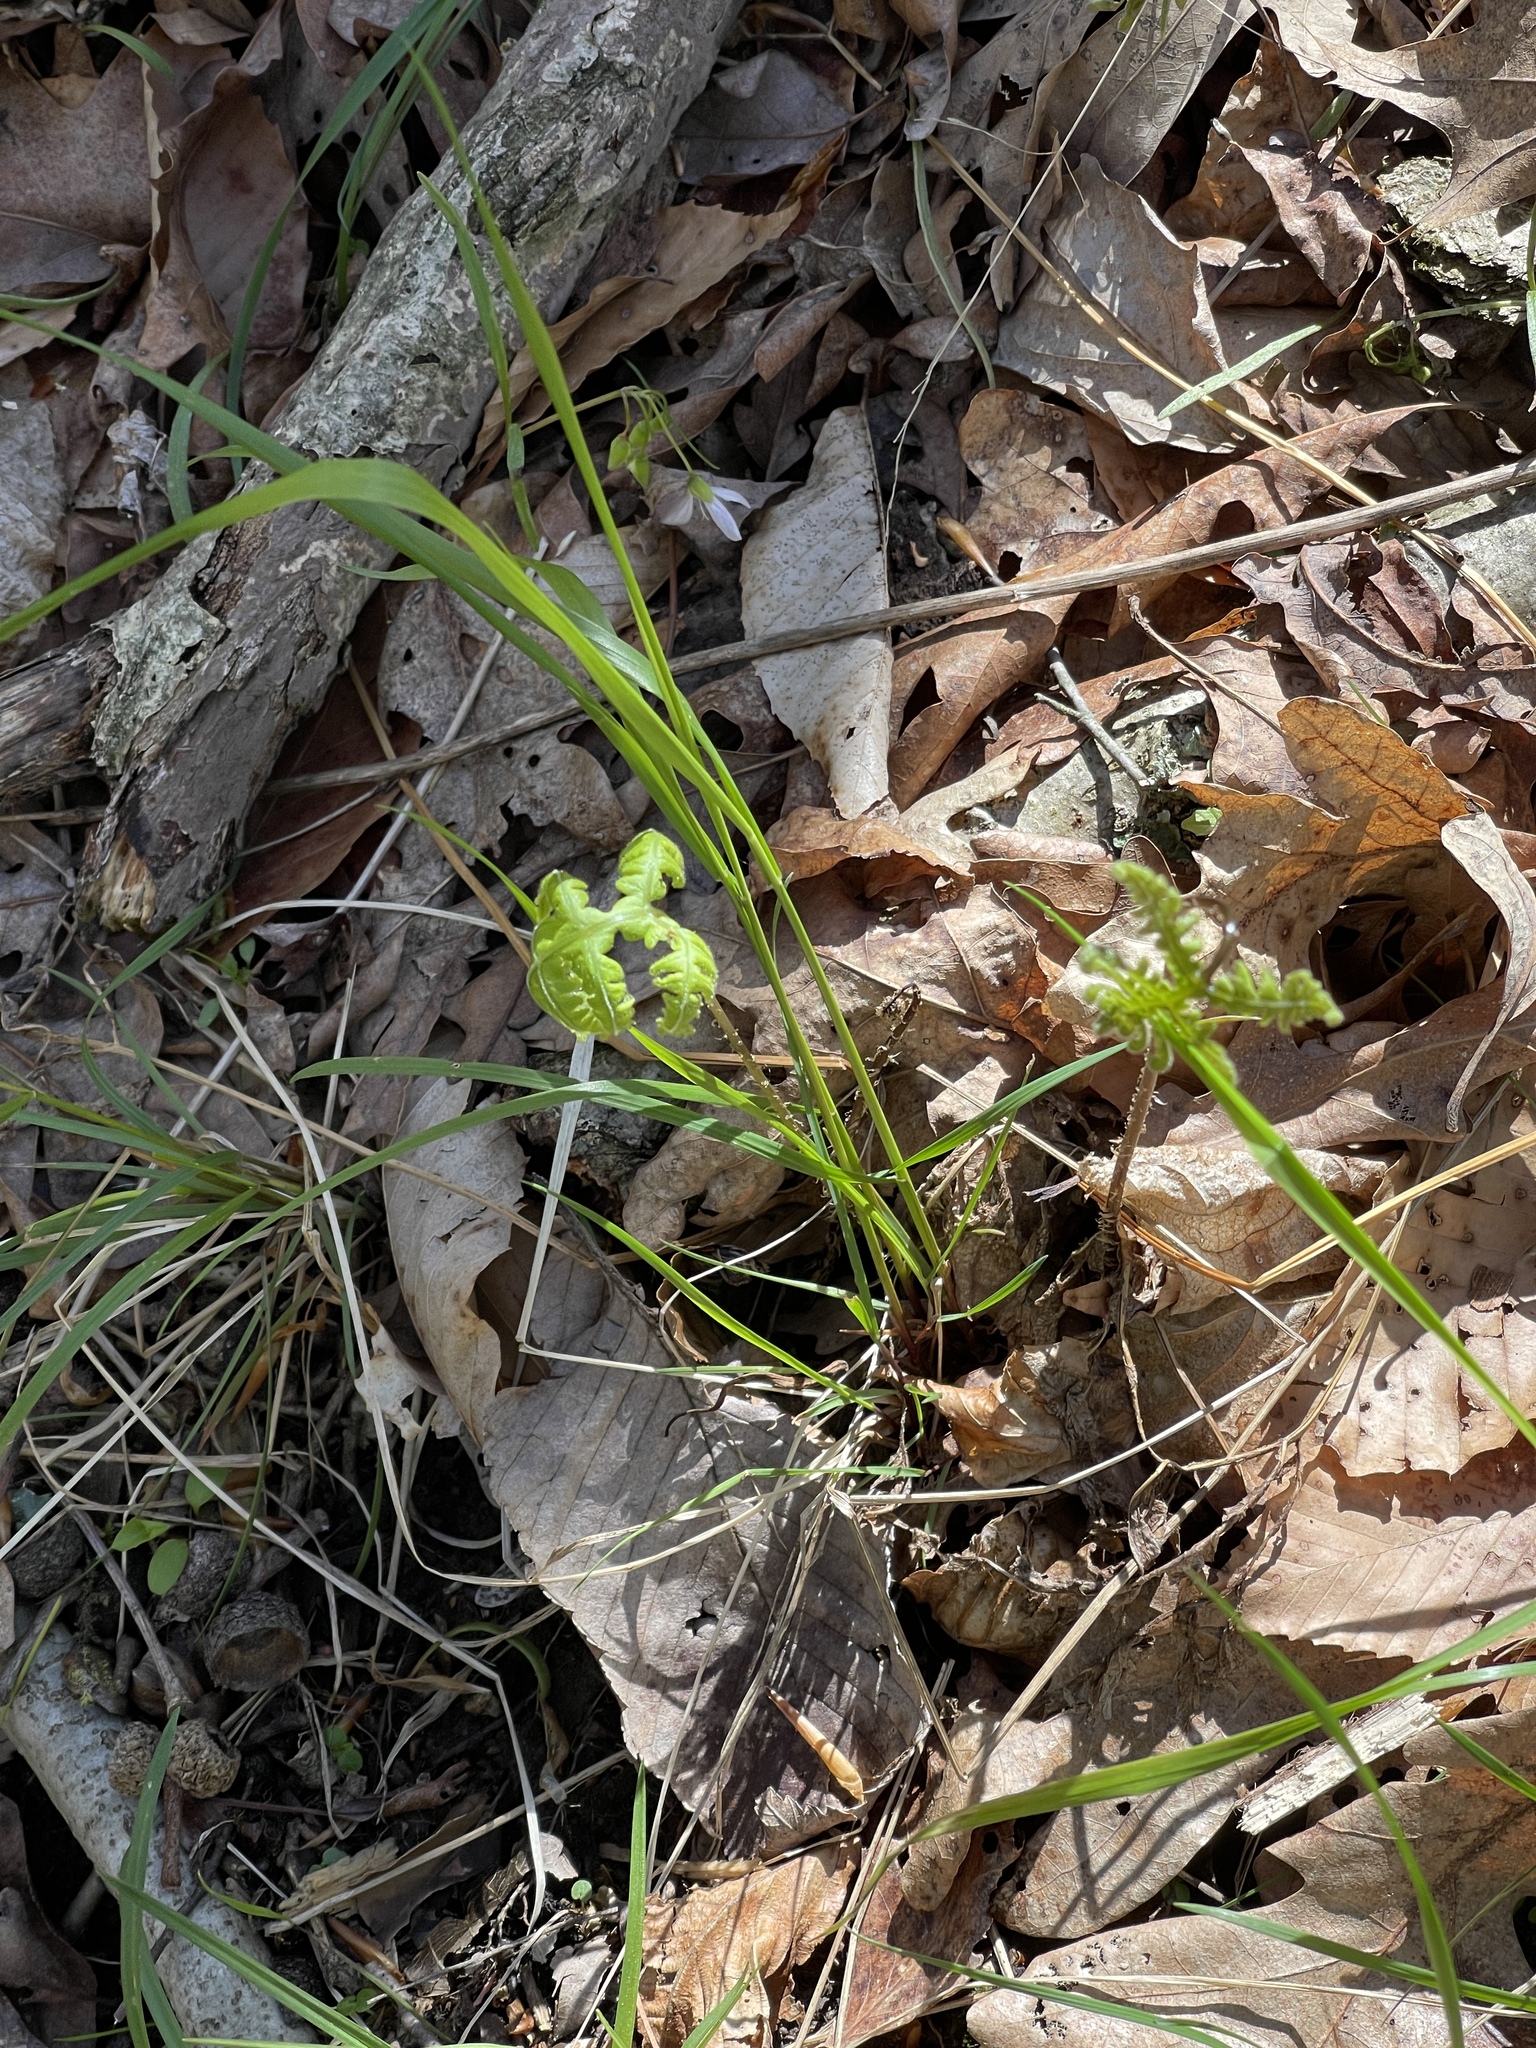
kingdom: Plantae
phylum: Tracheophyta
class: Polypodiopsida
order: Polypodiales
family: Thelypteridaceae
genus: Phegopteris
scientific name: Phegopteris hexagonoptera
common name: Broad beech fern
